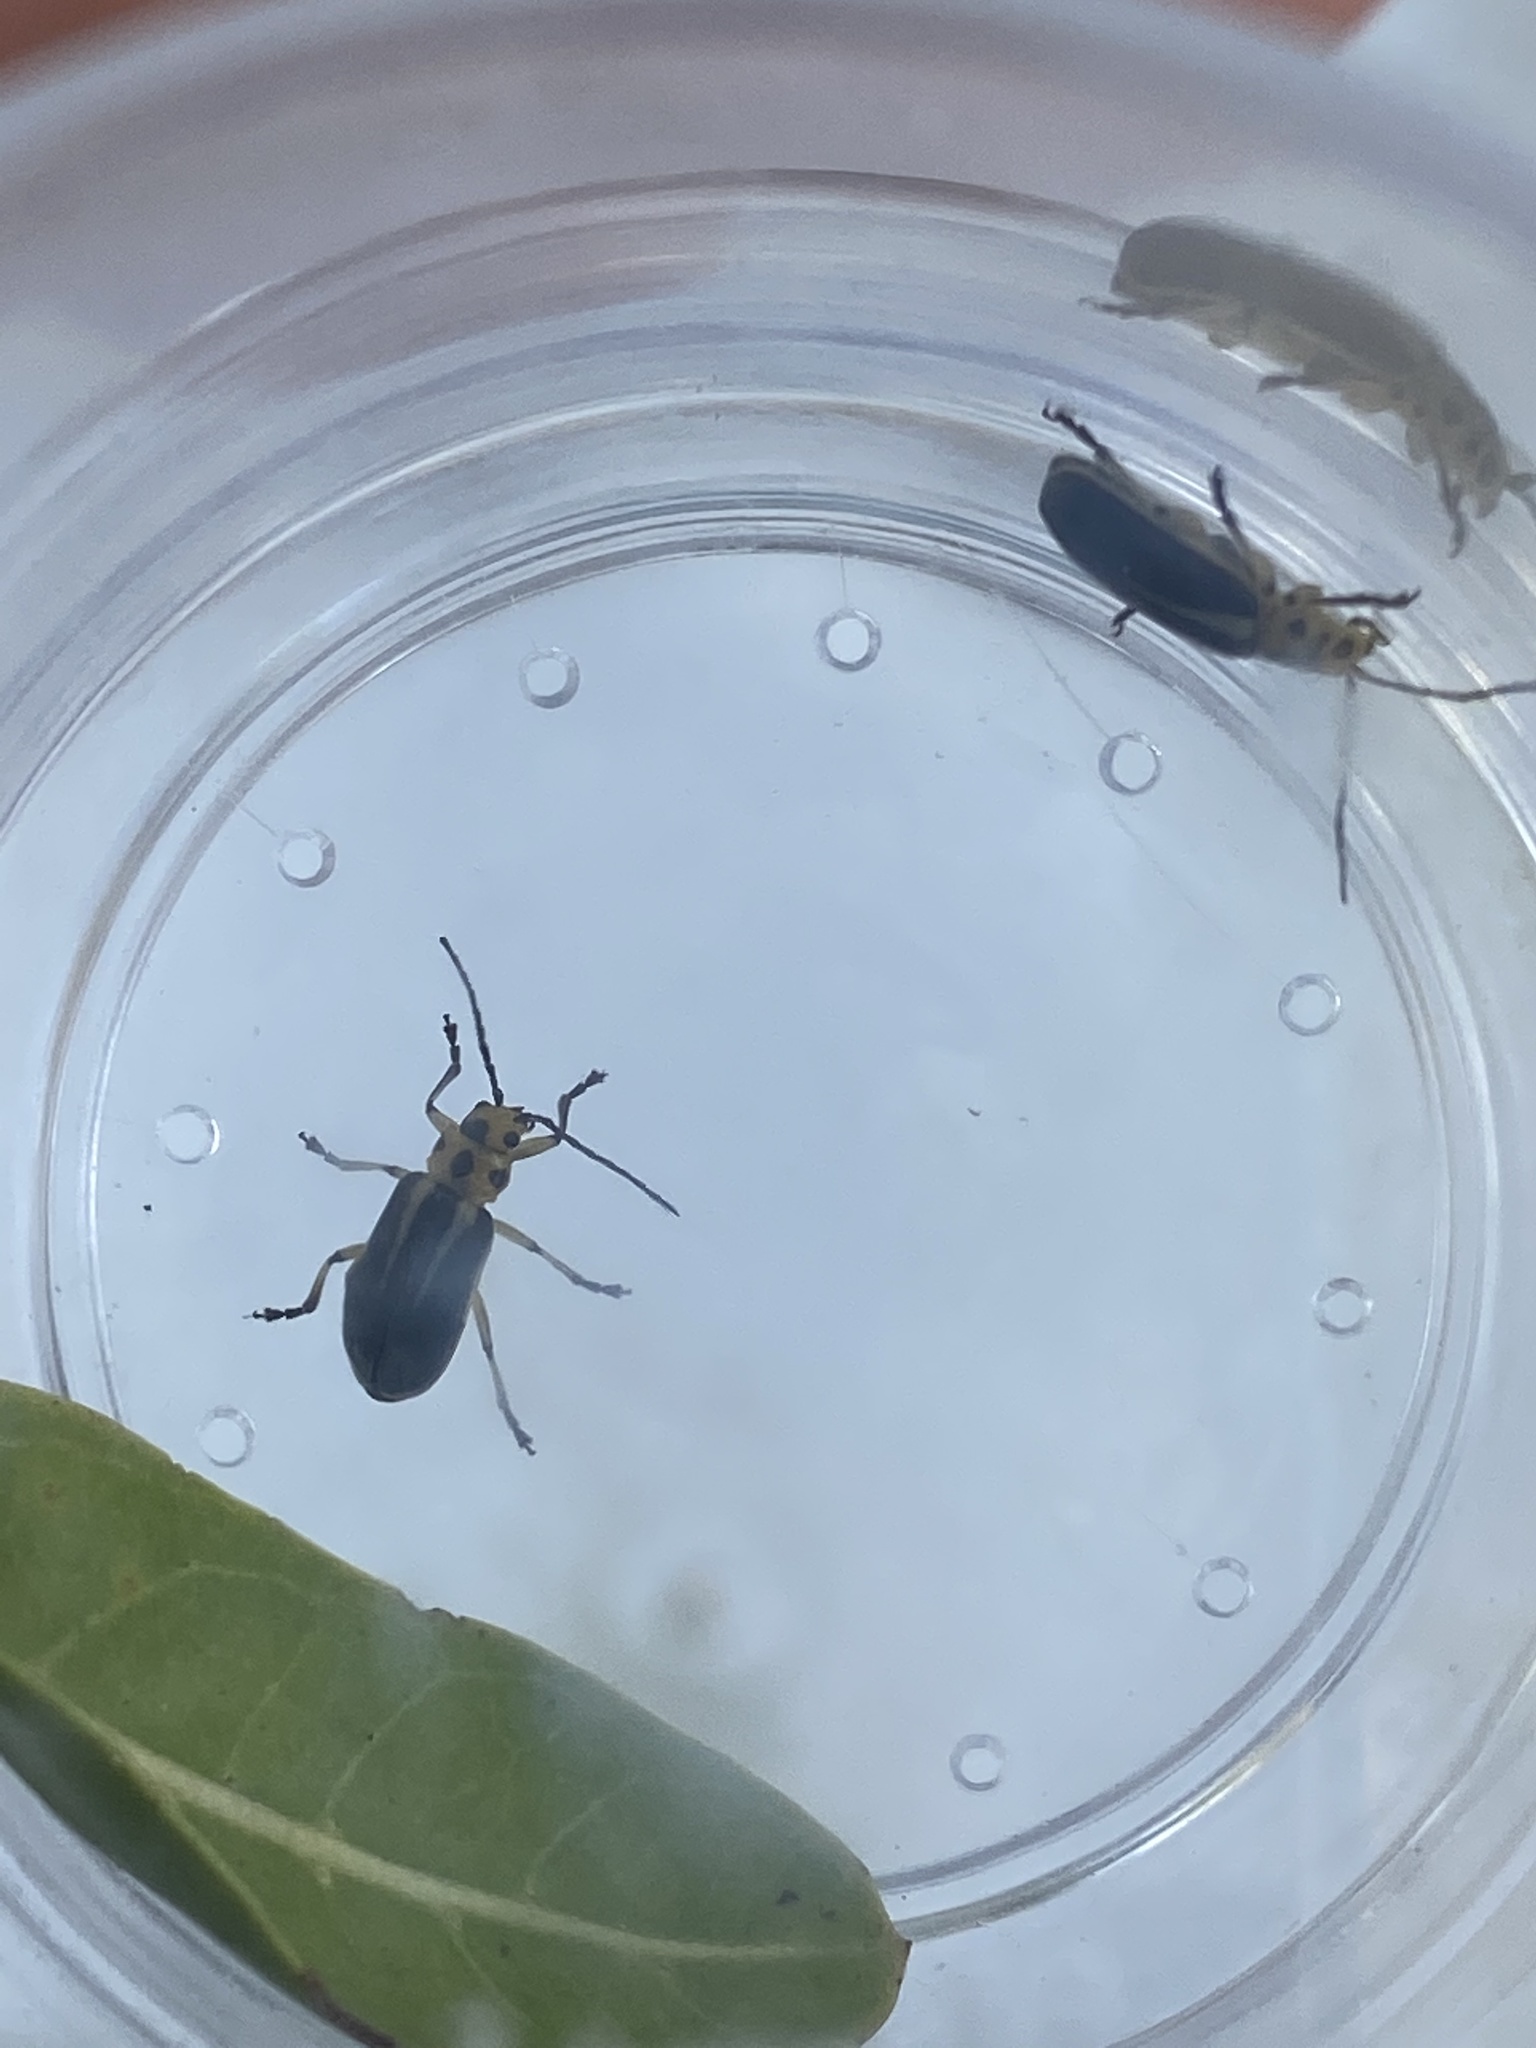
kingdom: Animalia
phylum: Arthropoda
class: Insecta
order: Coleoptera
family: Chrysomelidae
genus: Trirhabda
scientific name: Trirhabda bacharidis
